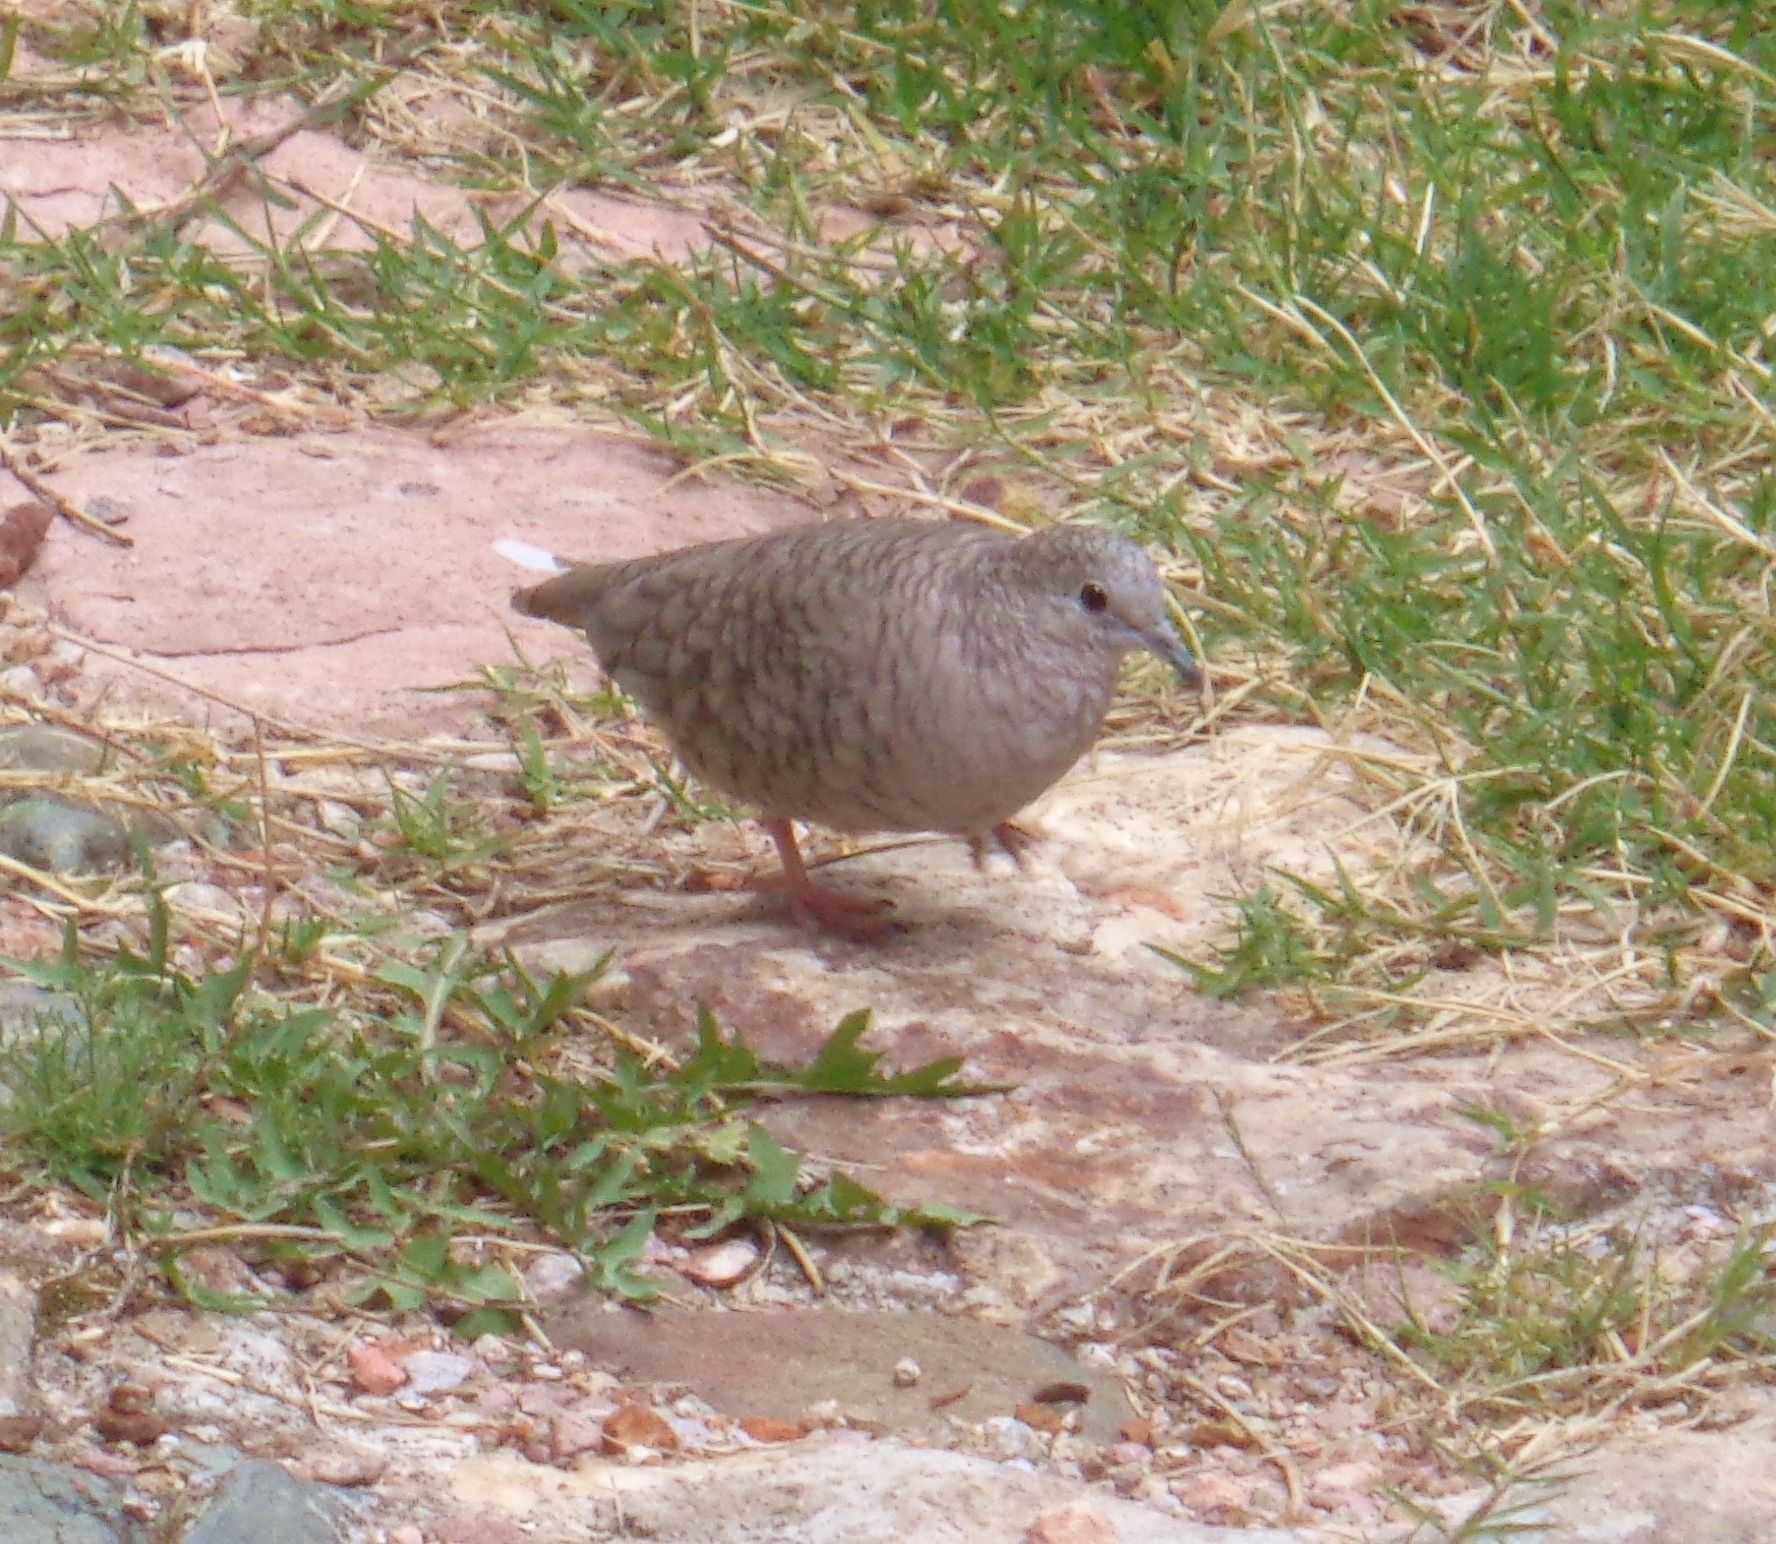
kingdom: Animalia
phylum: Chordata
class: Aves
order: Columbiformes
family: Columbidae
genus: Columbina
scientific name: Columbina inca
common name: Inca dove
